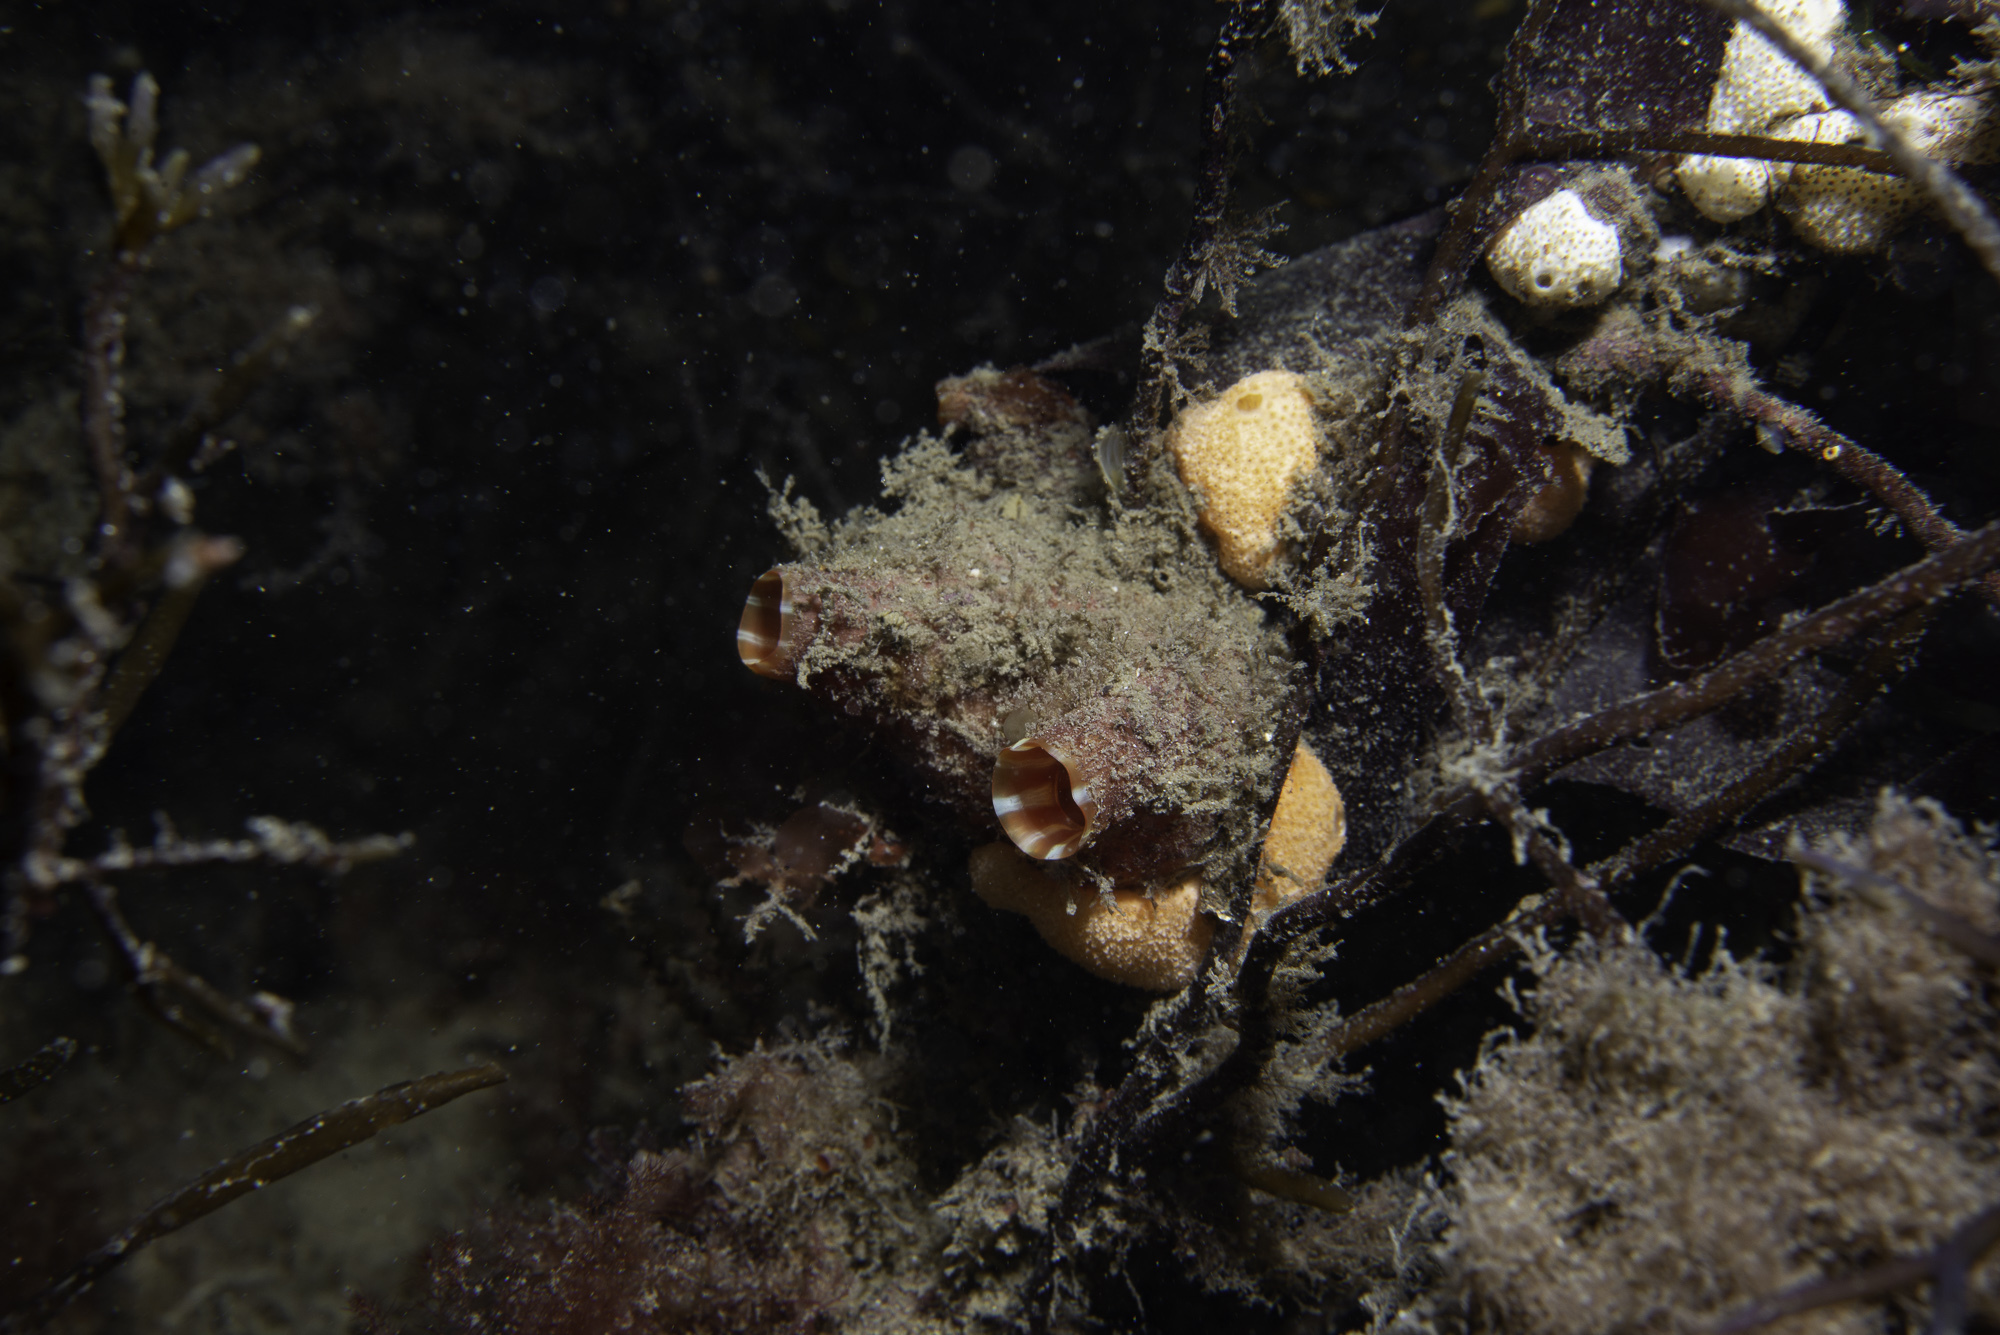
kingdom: Animalia
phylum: Chordata
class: Ascidiacea
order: Stolidobranchia
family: Pyuridae
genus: Pyura
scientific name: Pyura microcosmus
